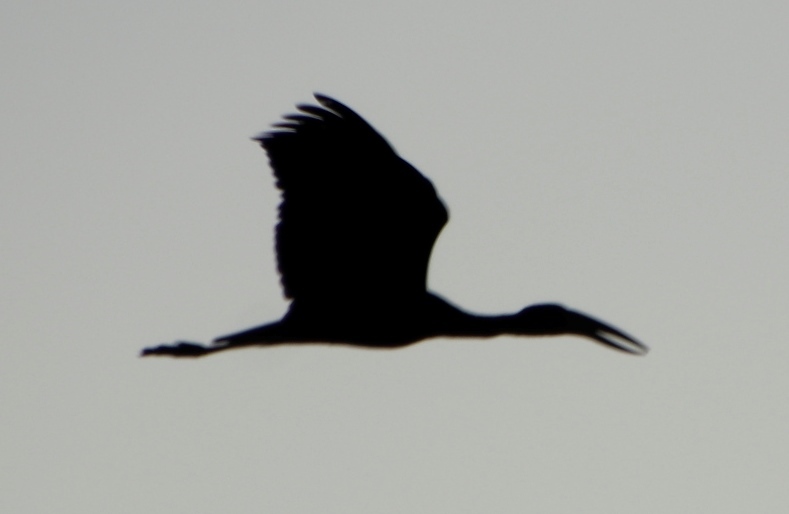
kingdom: Animalia
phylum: Chordata
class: Aves
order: Ciconiiformes
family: Ciconiidae
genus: Anastomus
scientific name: Anastomus lamelligerus
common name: African openbill
